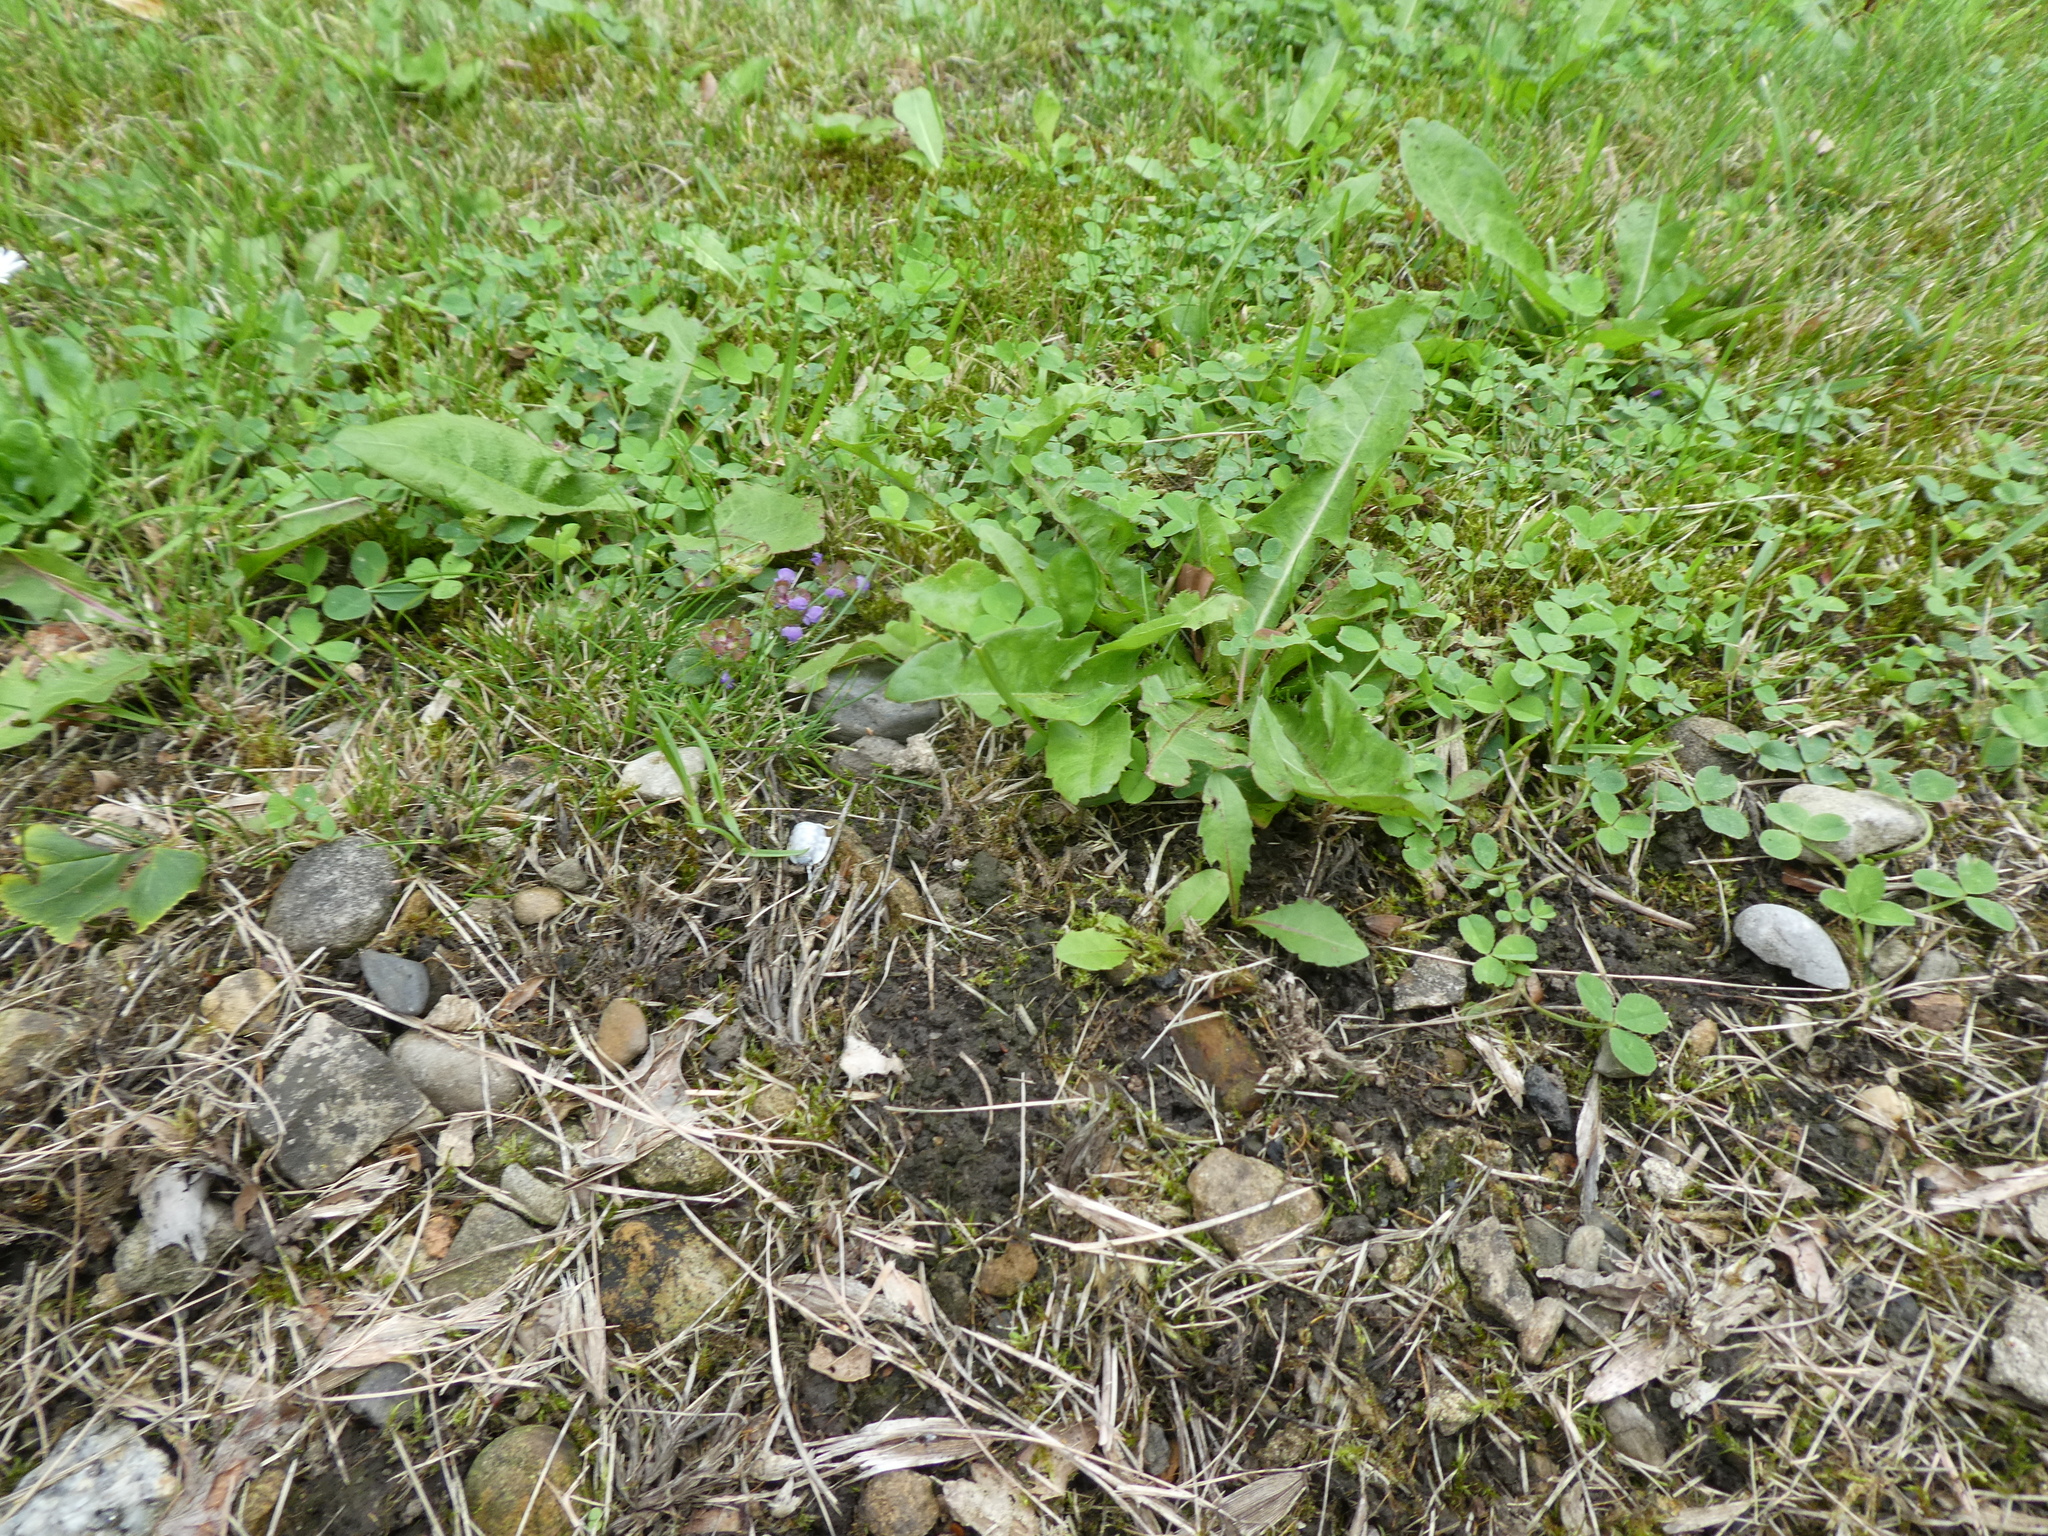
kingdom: Plantae
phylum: Tracheophyta
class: Magnoliopsida
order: Lamiales
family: Lamiaceae
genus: Prunella
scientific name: Prunella vulgaris
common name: Heal-all
